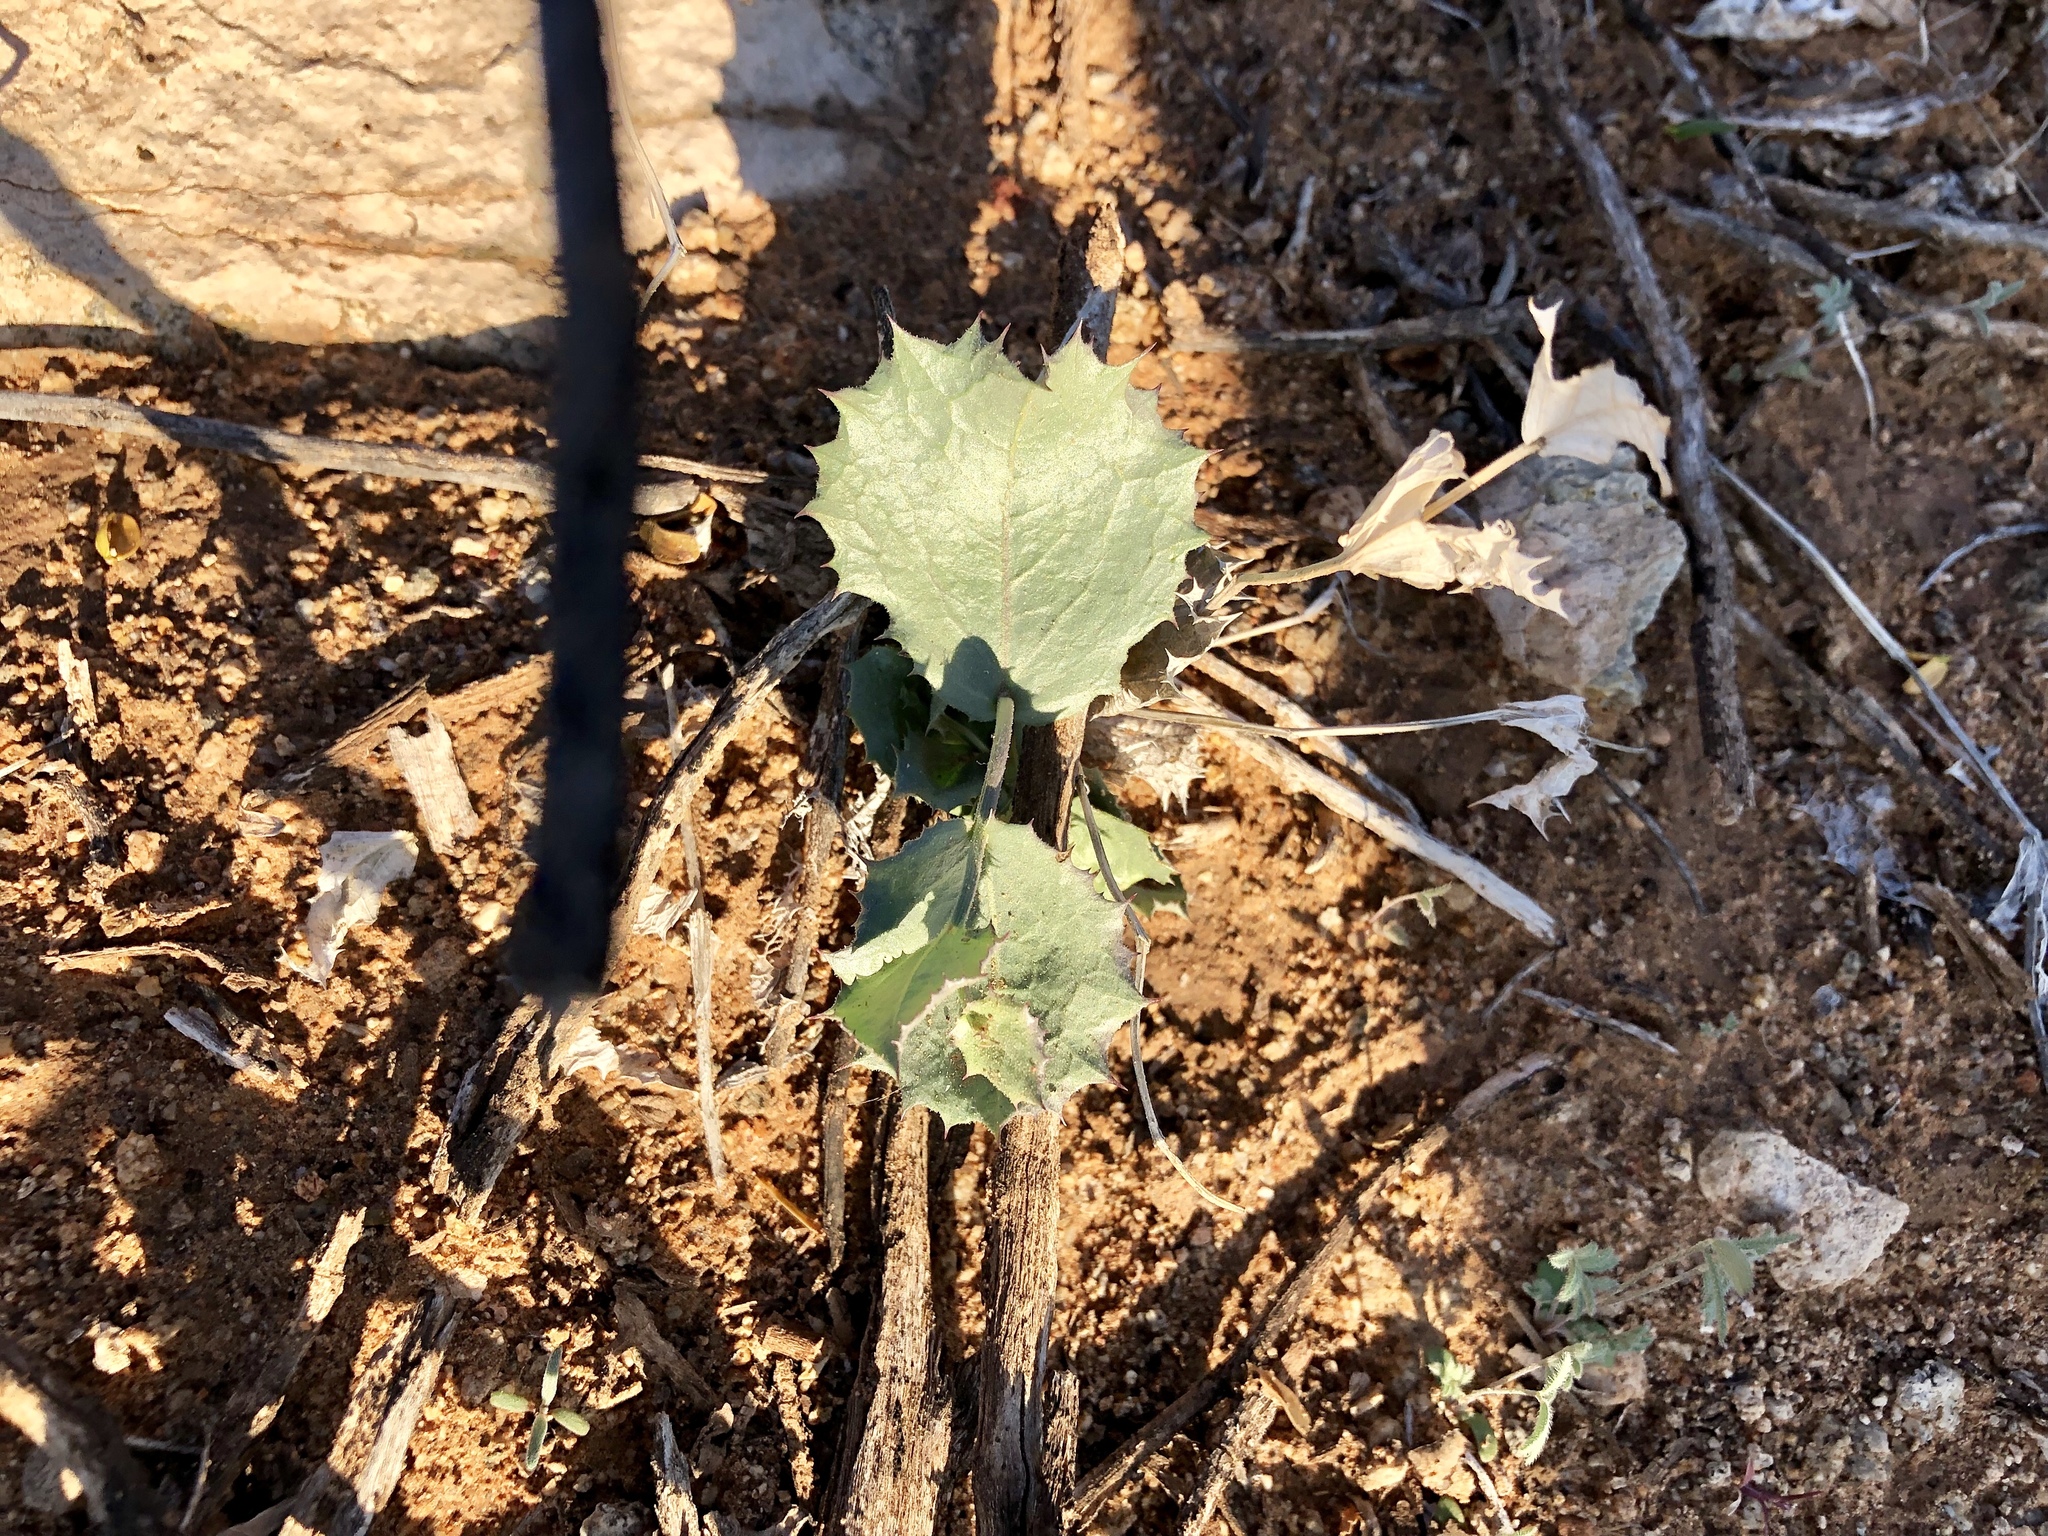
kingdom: Plantae
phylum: Tracheophyta
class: Magnoliopsida
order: Asterales
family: Asteraceae
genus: Acourtia
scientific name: Acourtia nana
